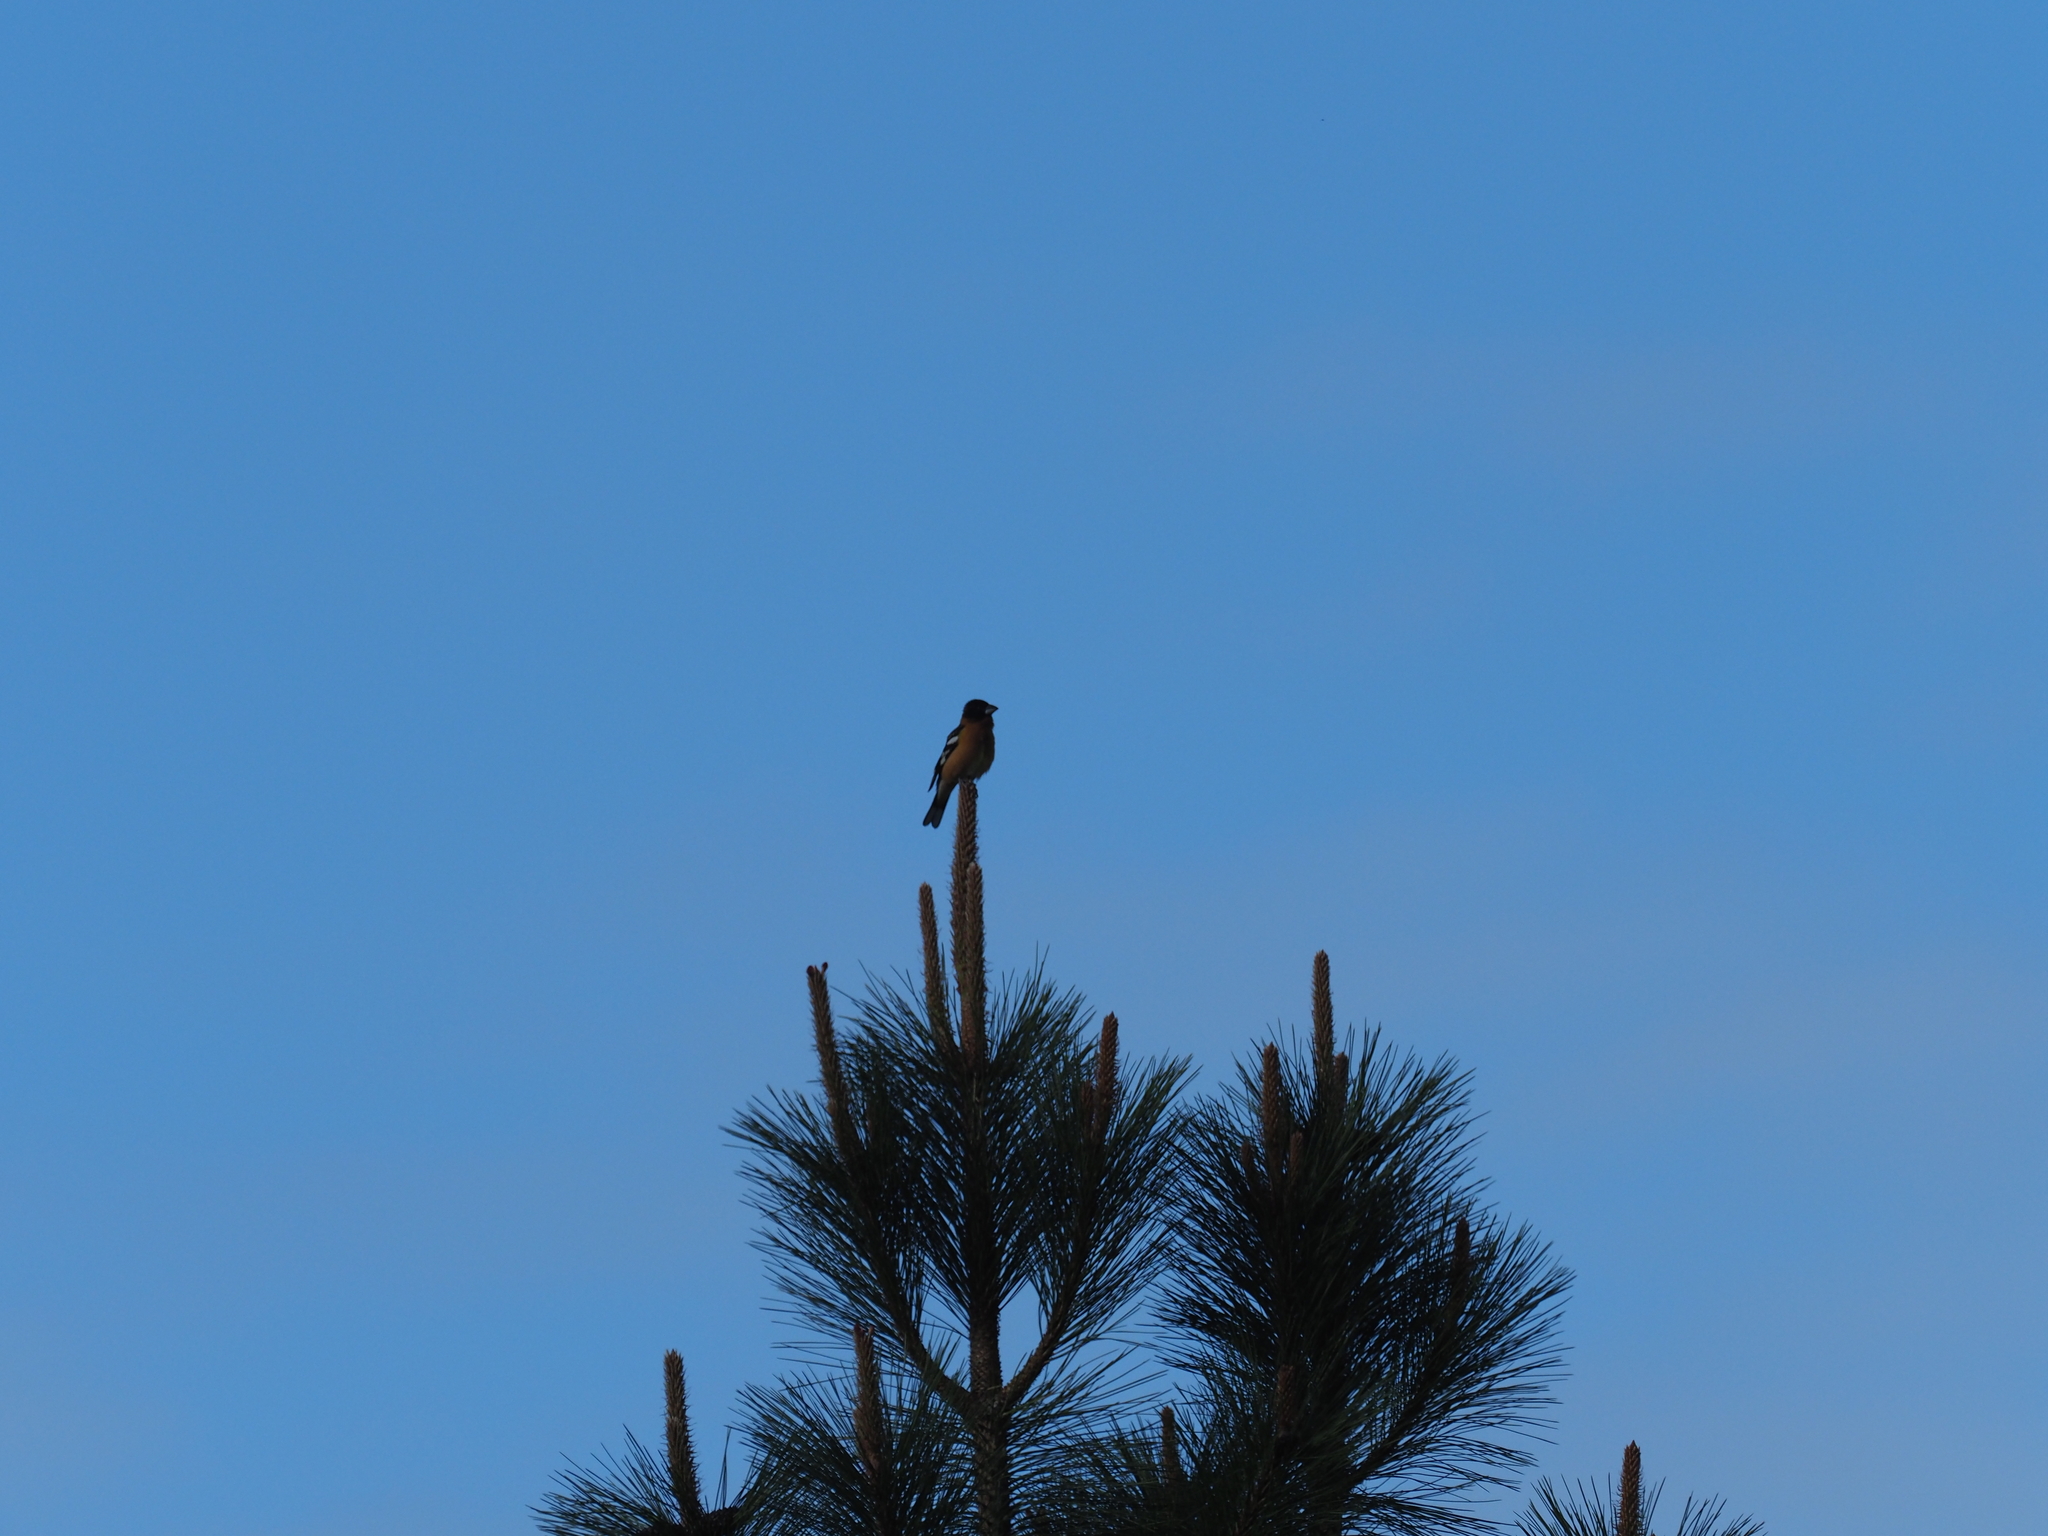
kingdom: Animalia
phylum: Chordata
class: Aves
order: Passeriformes
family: Cardinalidae
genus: Pheucticus
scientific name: Pheucticus melanocephalus
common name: Black-headed grosbeak
